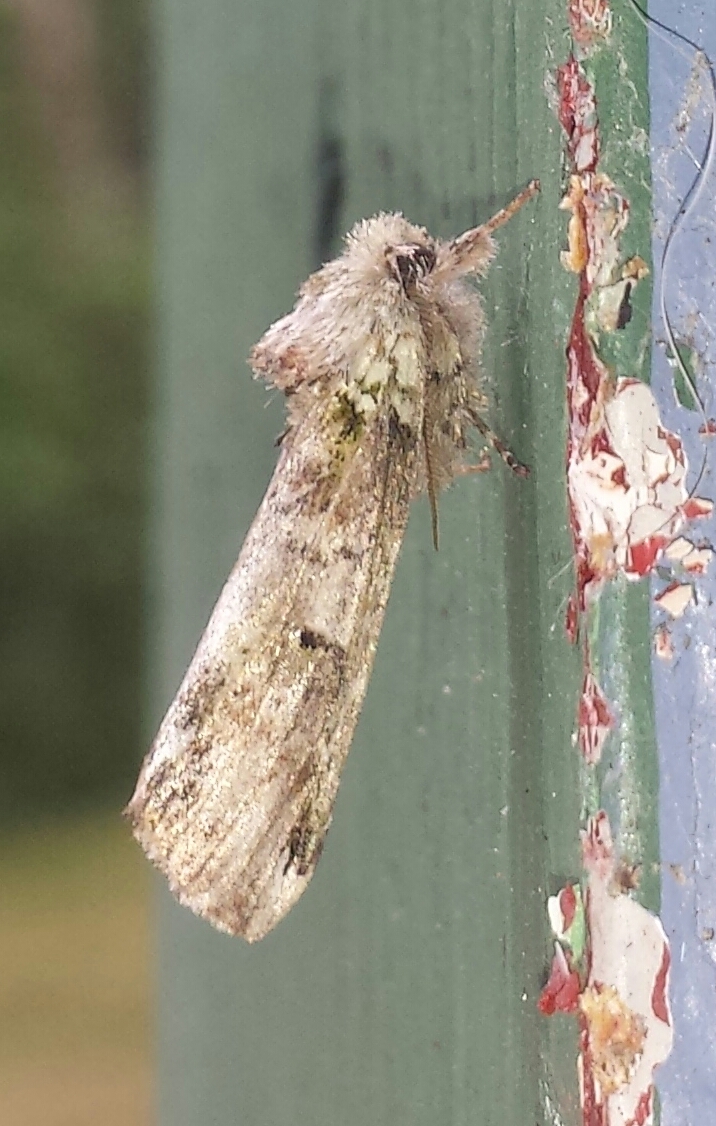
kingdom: Animalia
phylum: Arthropoda
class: Insecta
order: Lepidoptera
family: Notodontidae
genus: Schizura
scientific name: Schizura
